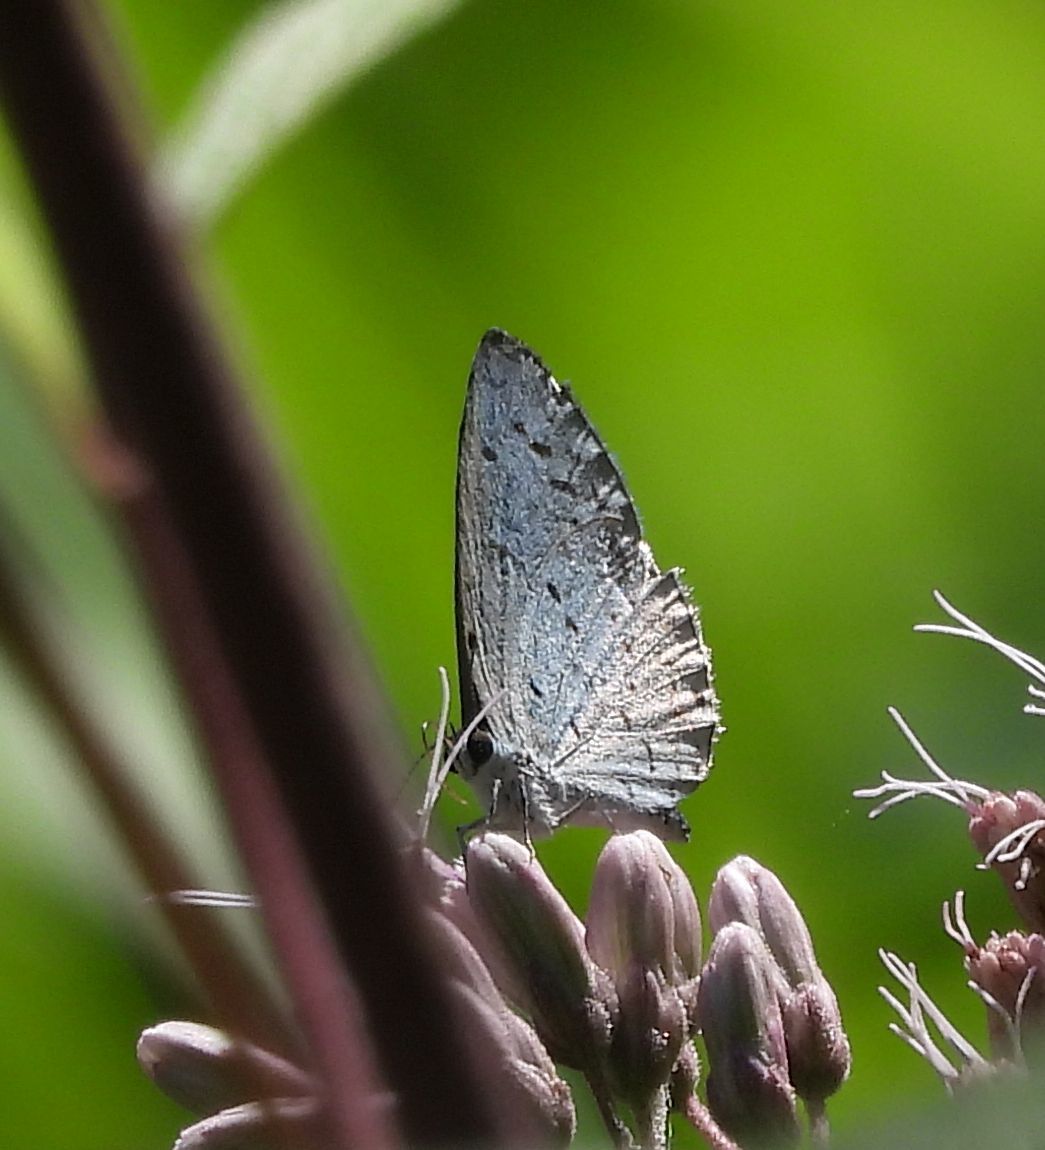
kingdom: Animalia
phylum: Arthropoda
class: Insecta
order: Lepidoptera
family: Lycaenidae
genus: Celastrina
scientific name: Celastrina
